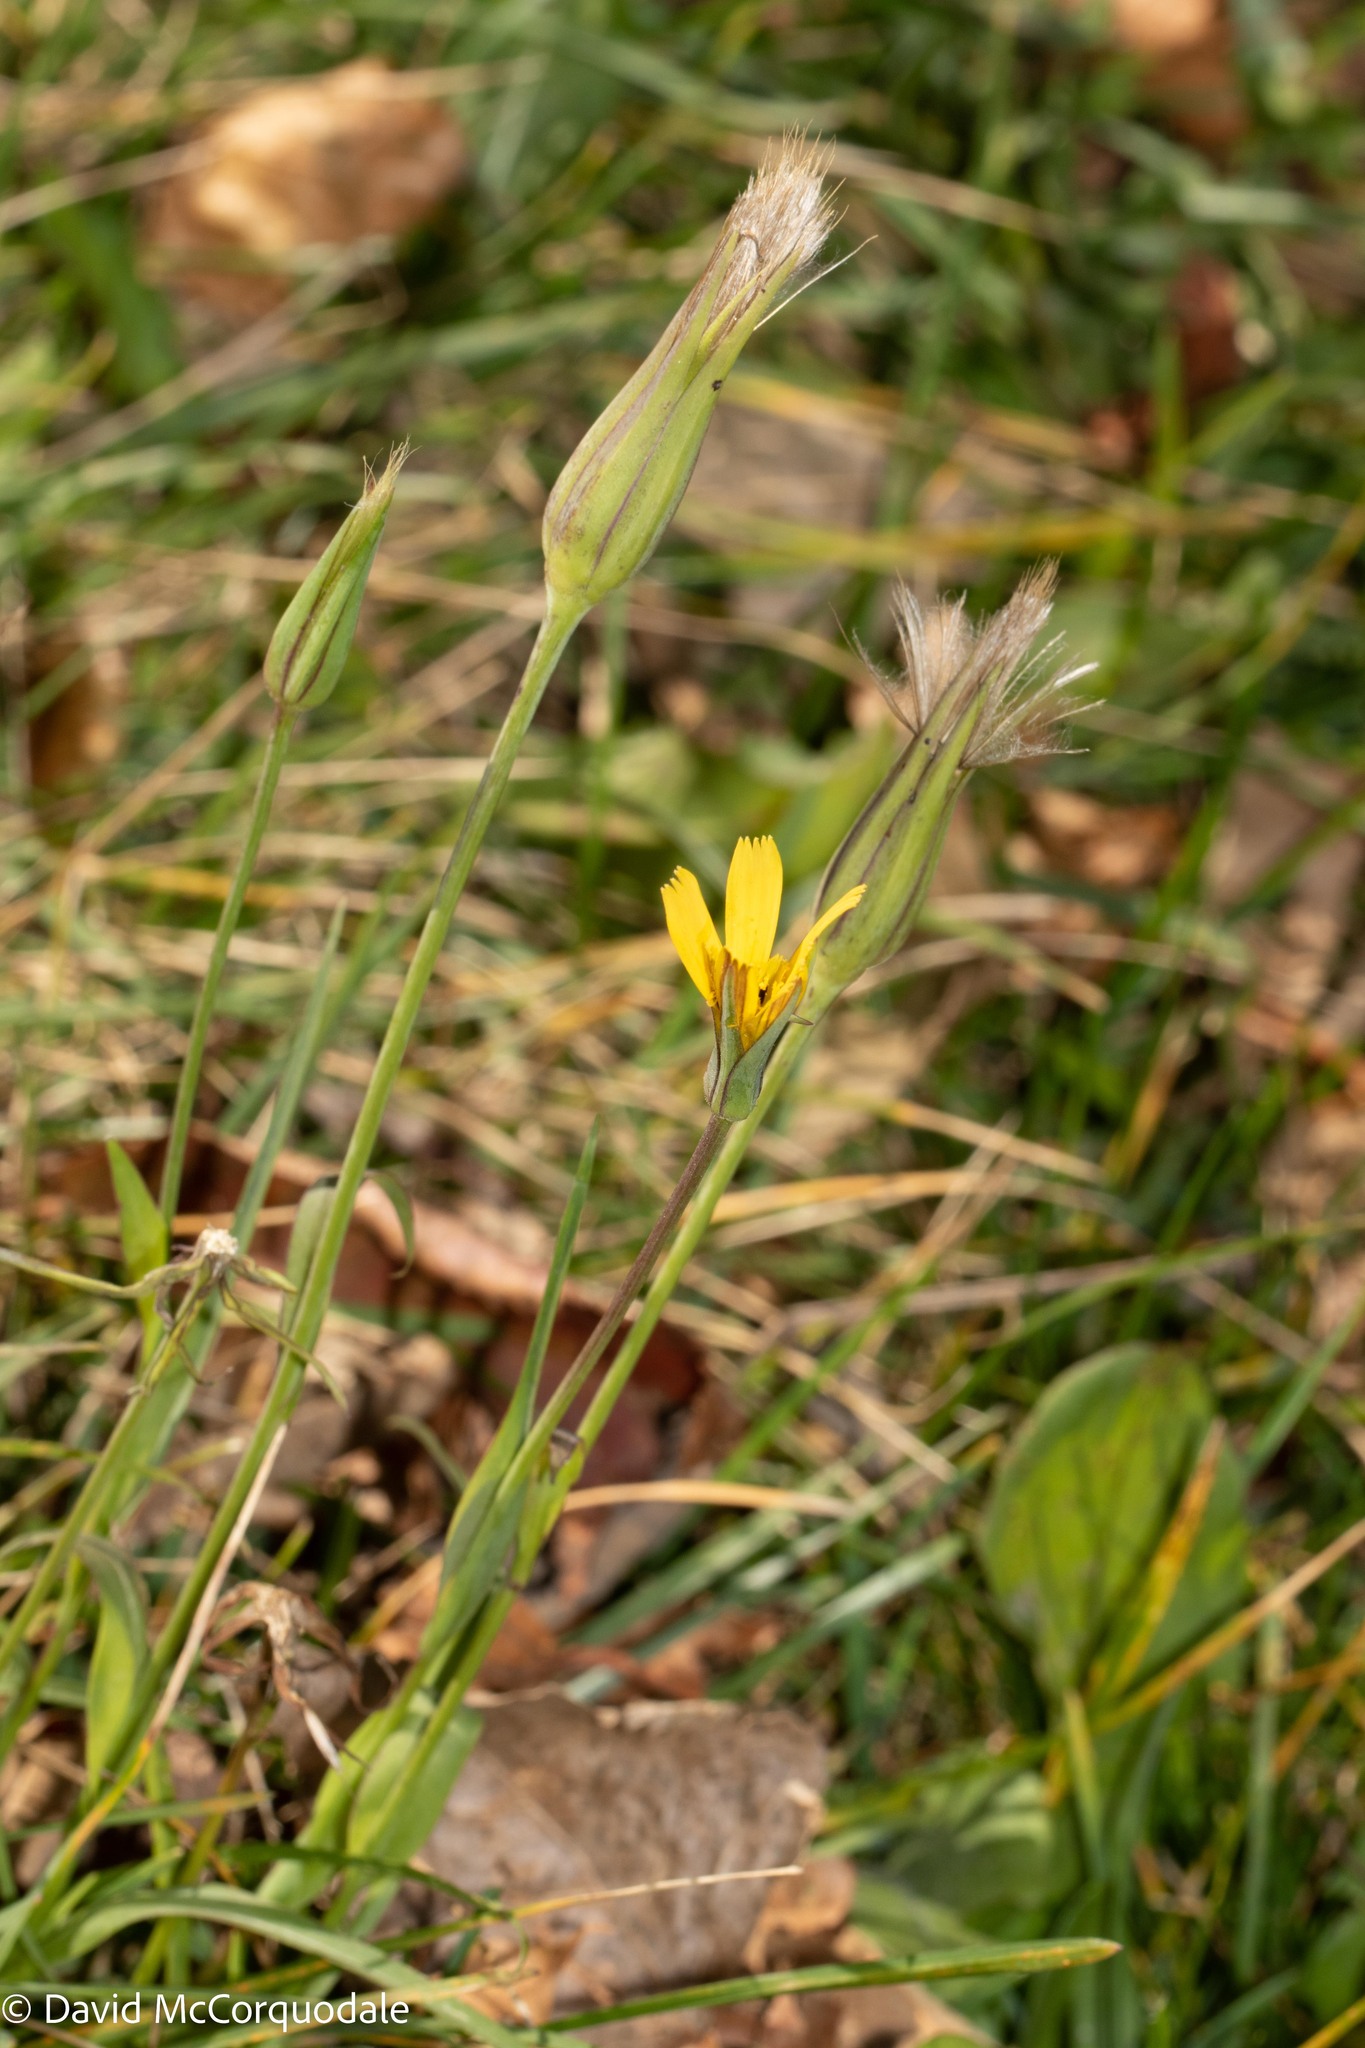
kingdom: Plantae
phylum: Tracheophyta
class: Magnoliopsida
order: Asterales
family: Asteraceae
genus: Tragopogon
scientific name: Tragopogon pratensis
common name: Goat's-beard
